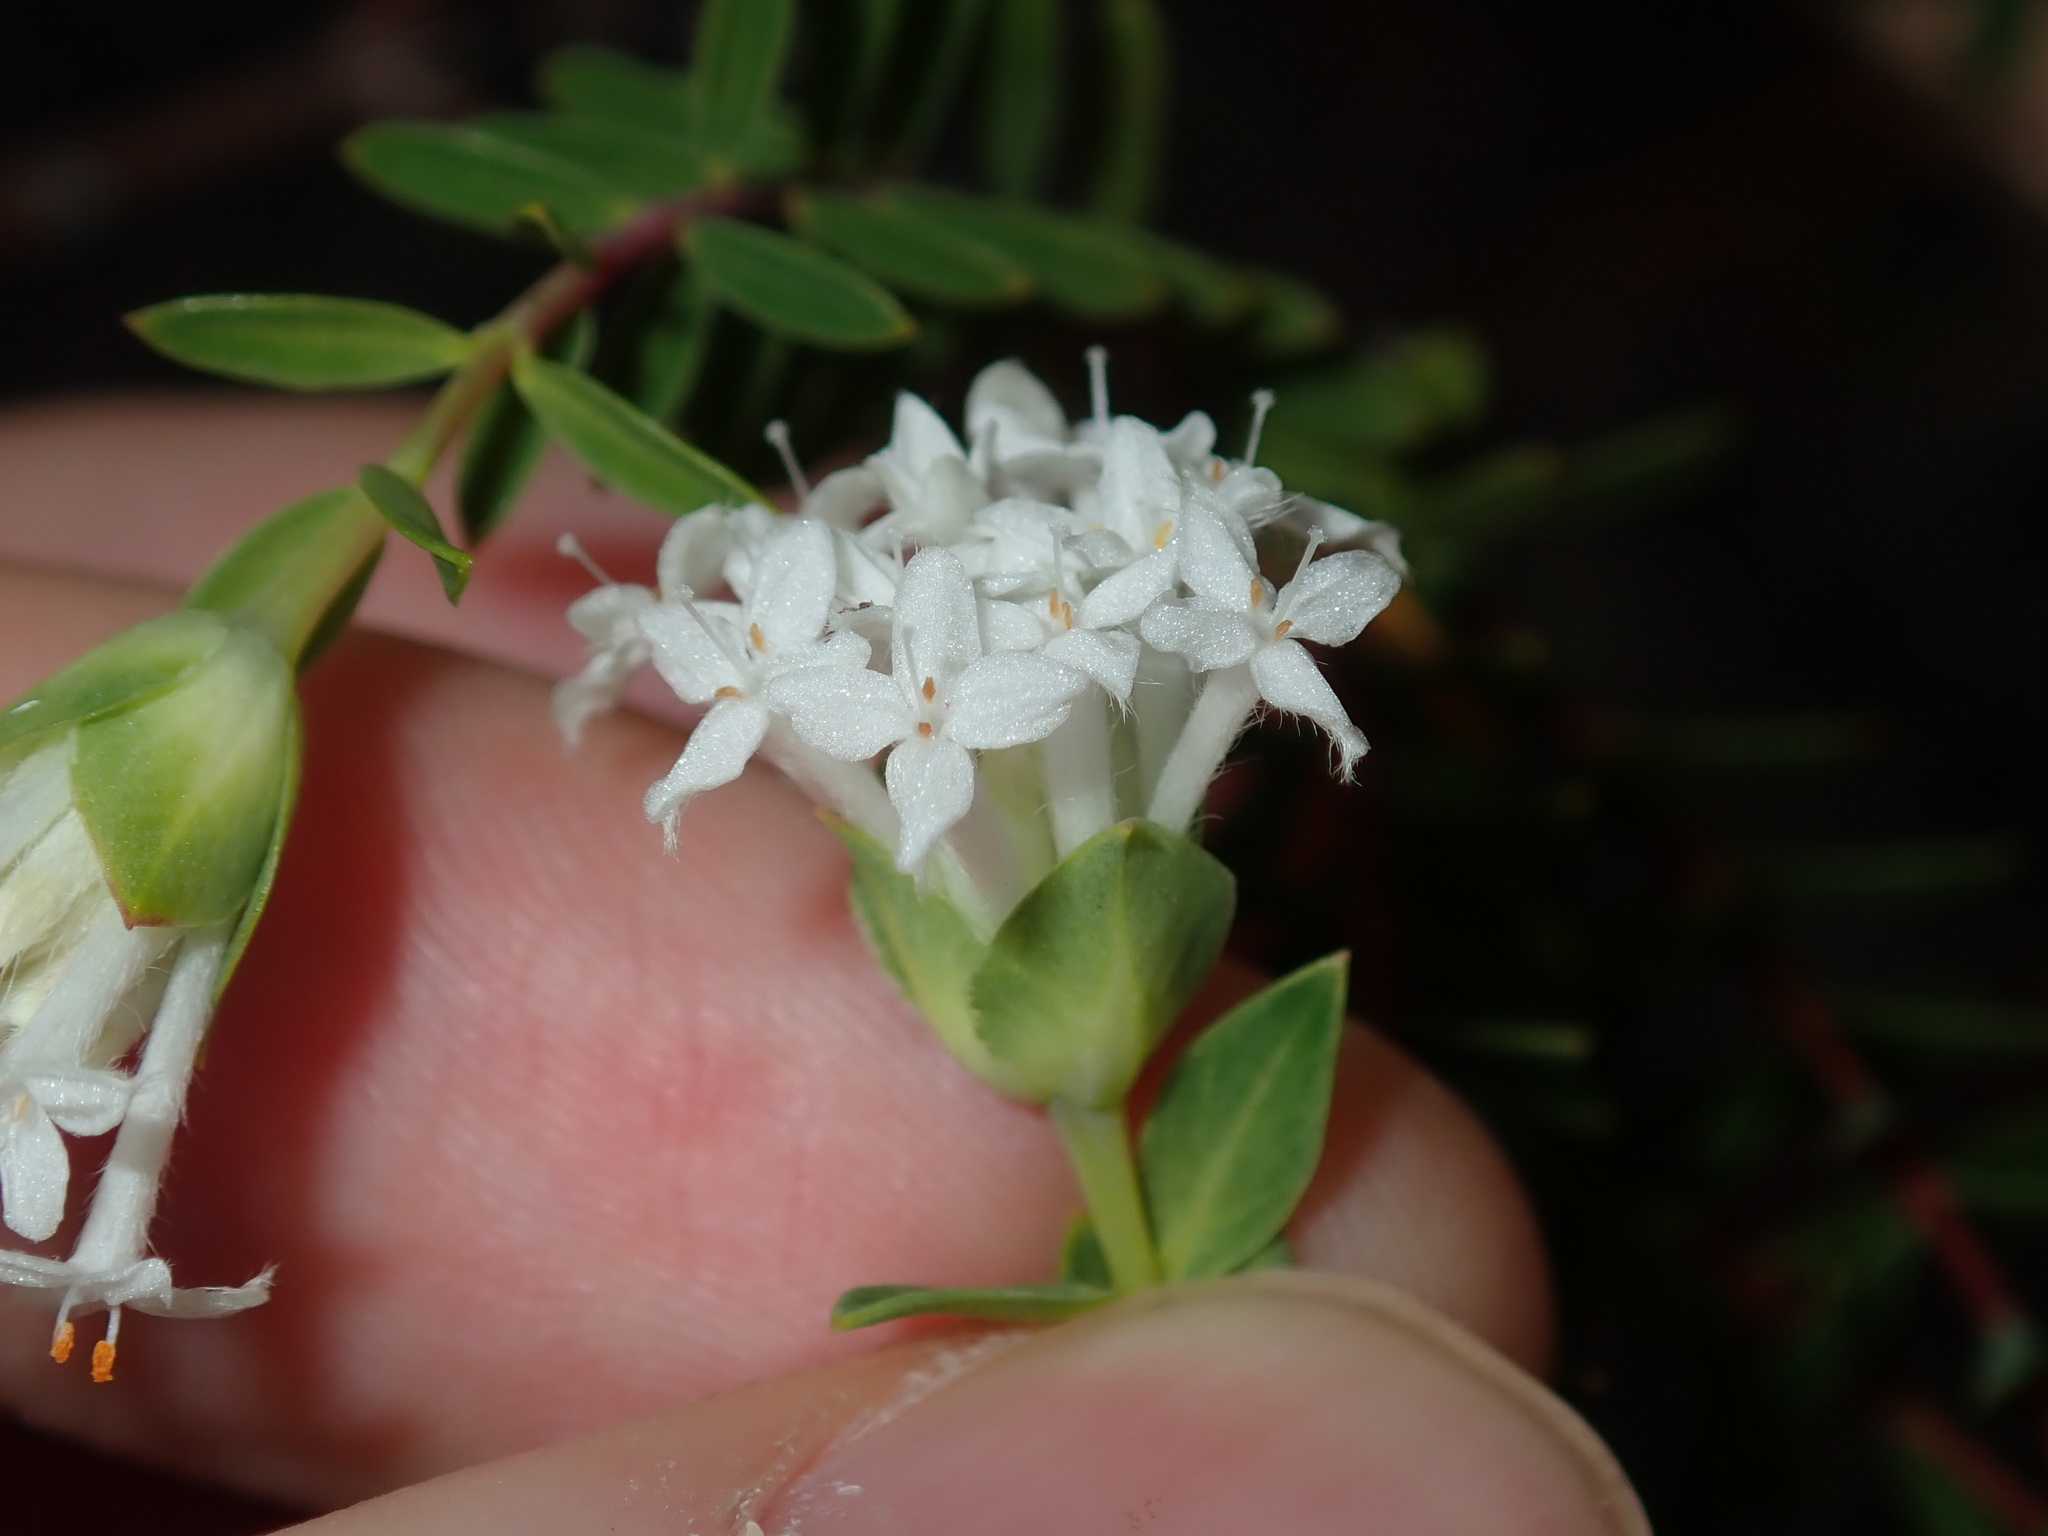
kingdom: Plantae
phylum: Tracheophyta
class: Magnoliopsida
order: Malvales
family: Thymelaeaceae
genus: Pimelea
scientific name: Pimelea linifolia
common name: Queen-of-the-bush
